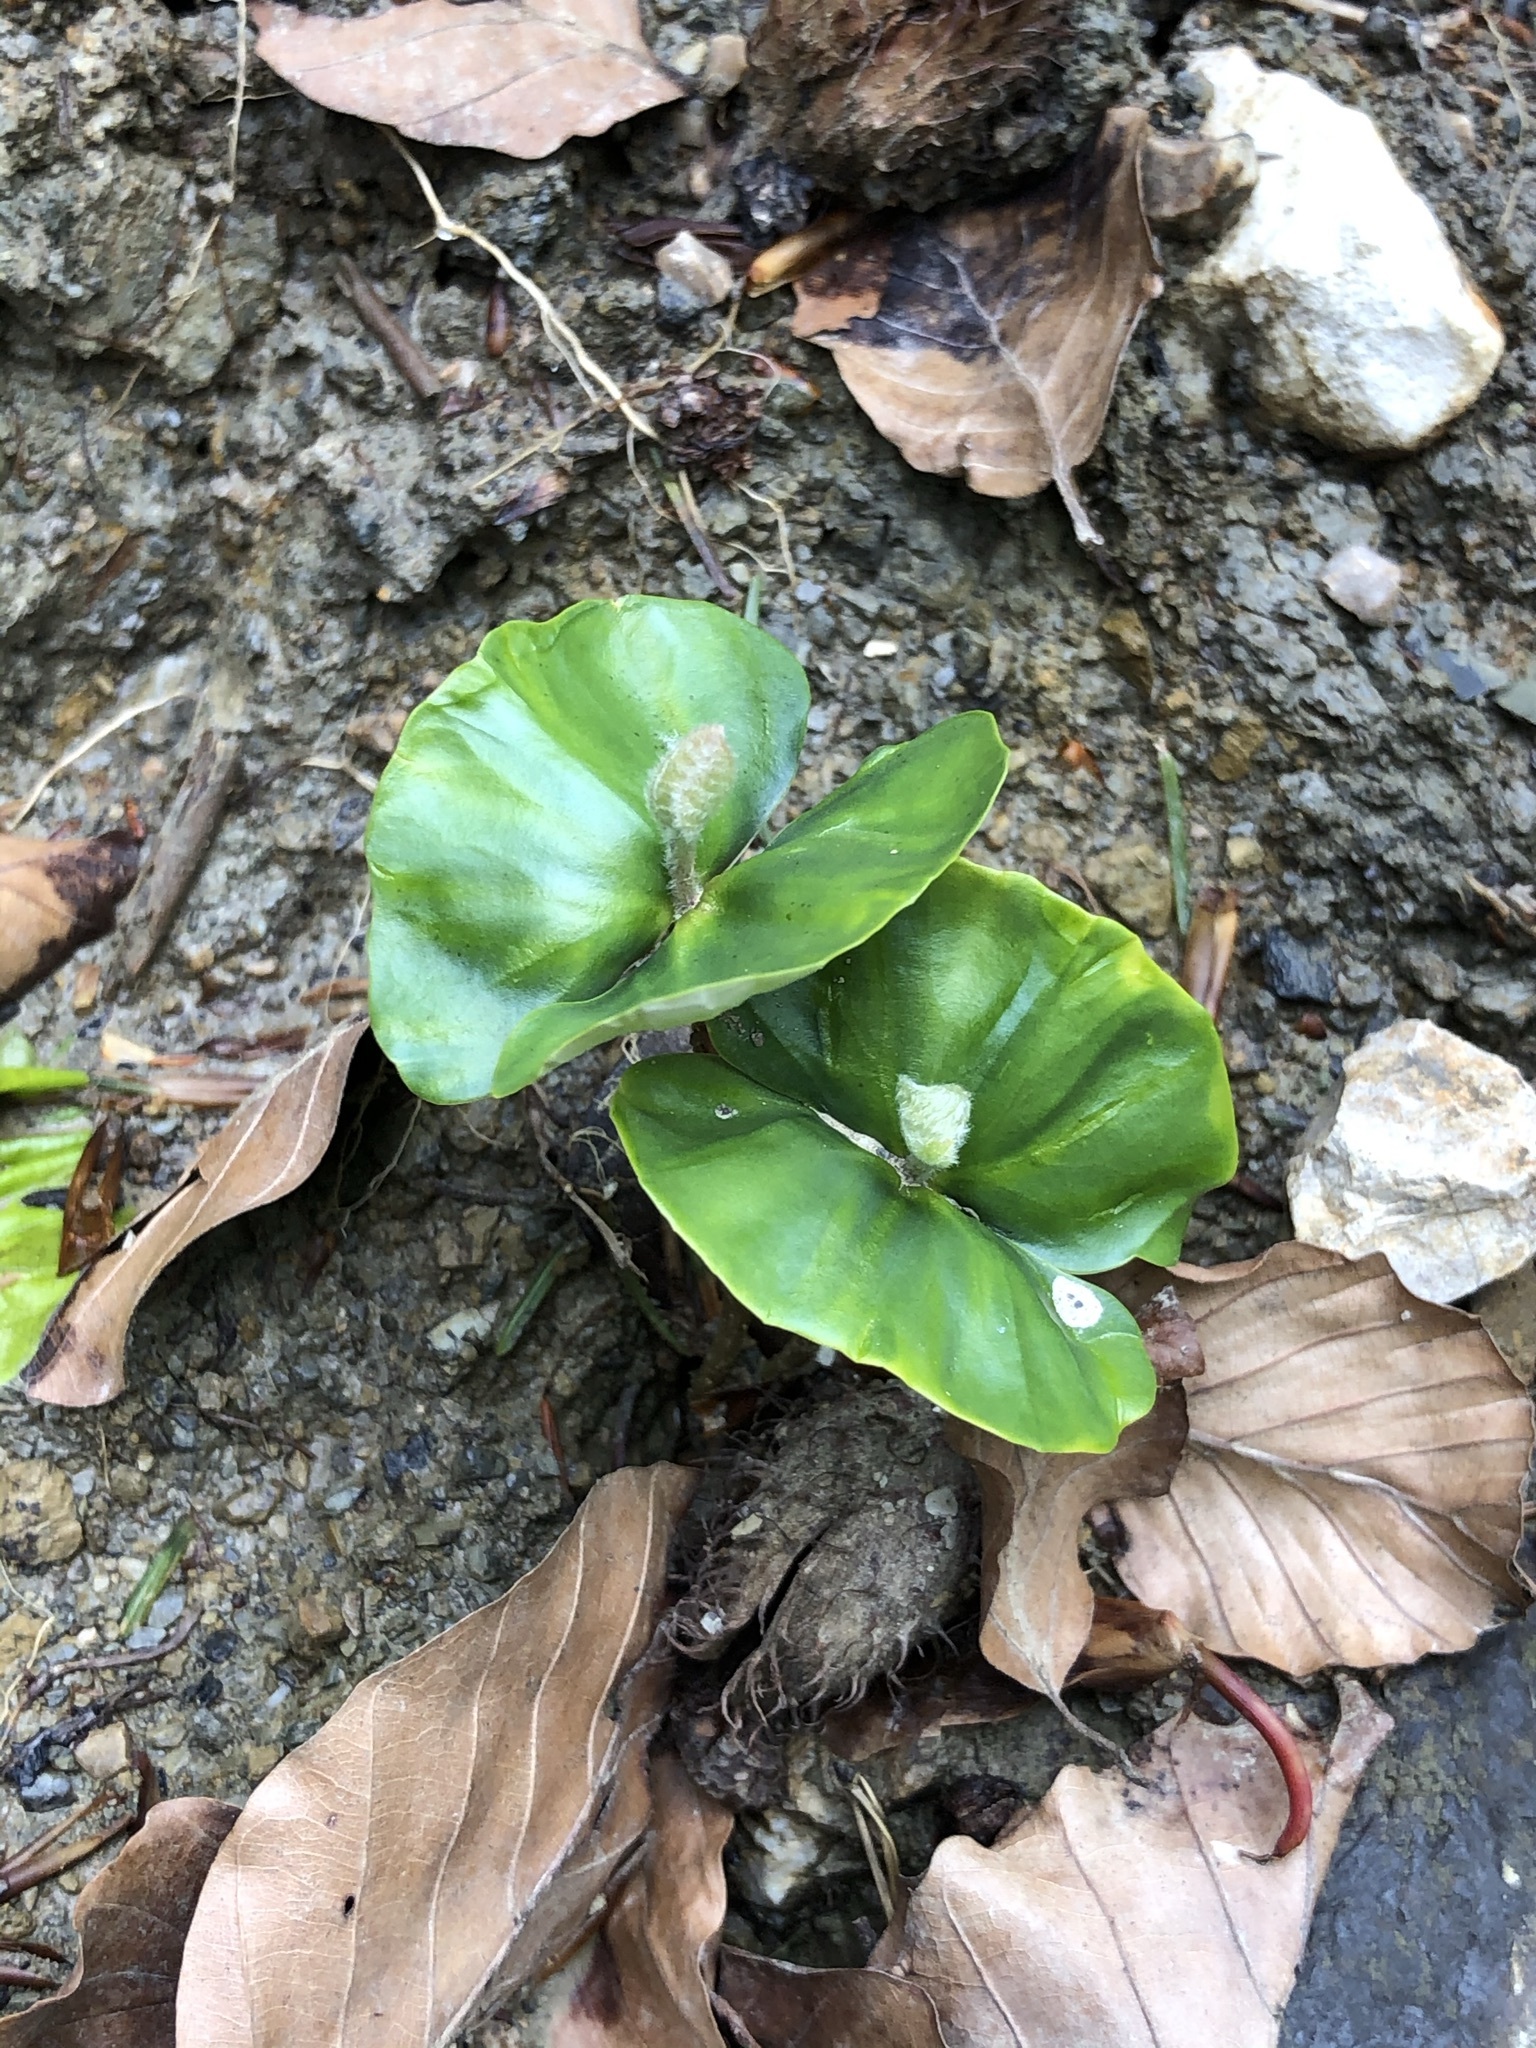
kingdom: Plantae
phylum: Tracheophyta
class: Magnoliopsida
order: Fagales
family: Fagaceae
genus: Fagus
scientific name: Fagus sylvatica
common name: Beech
